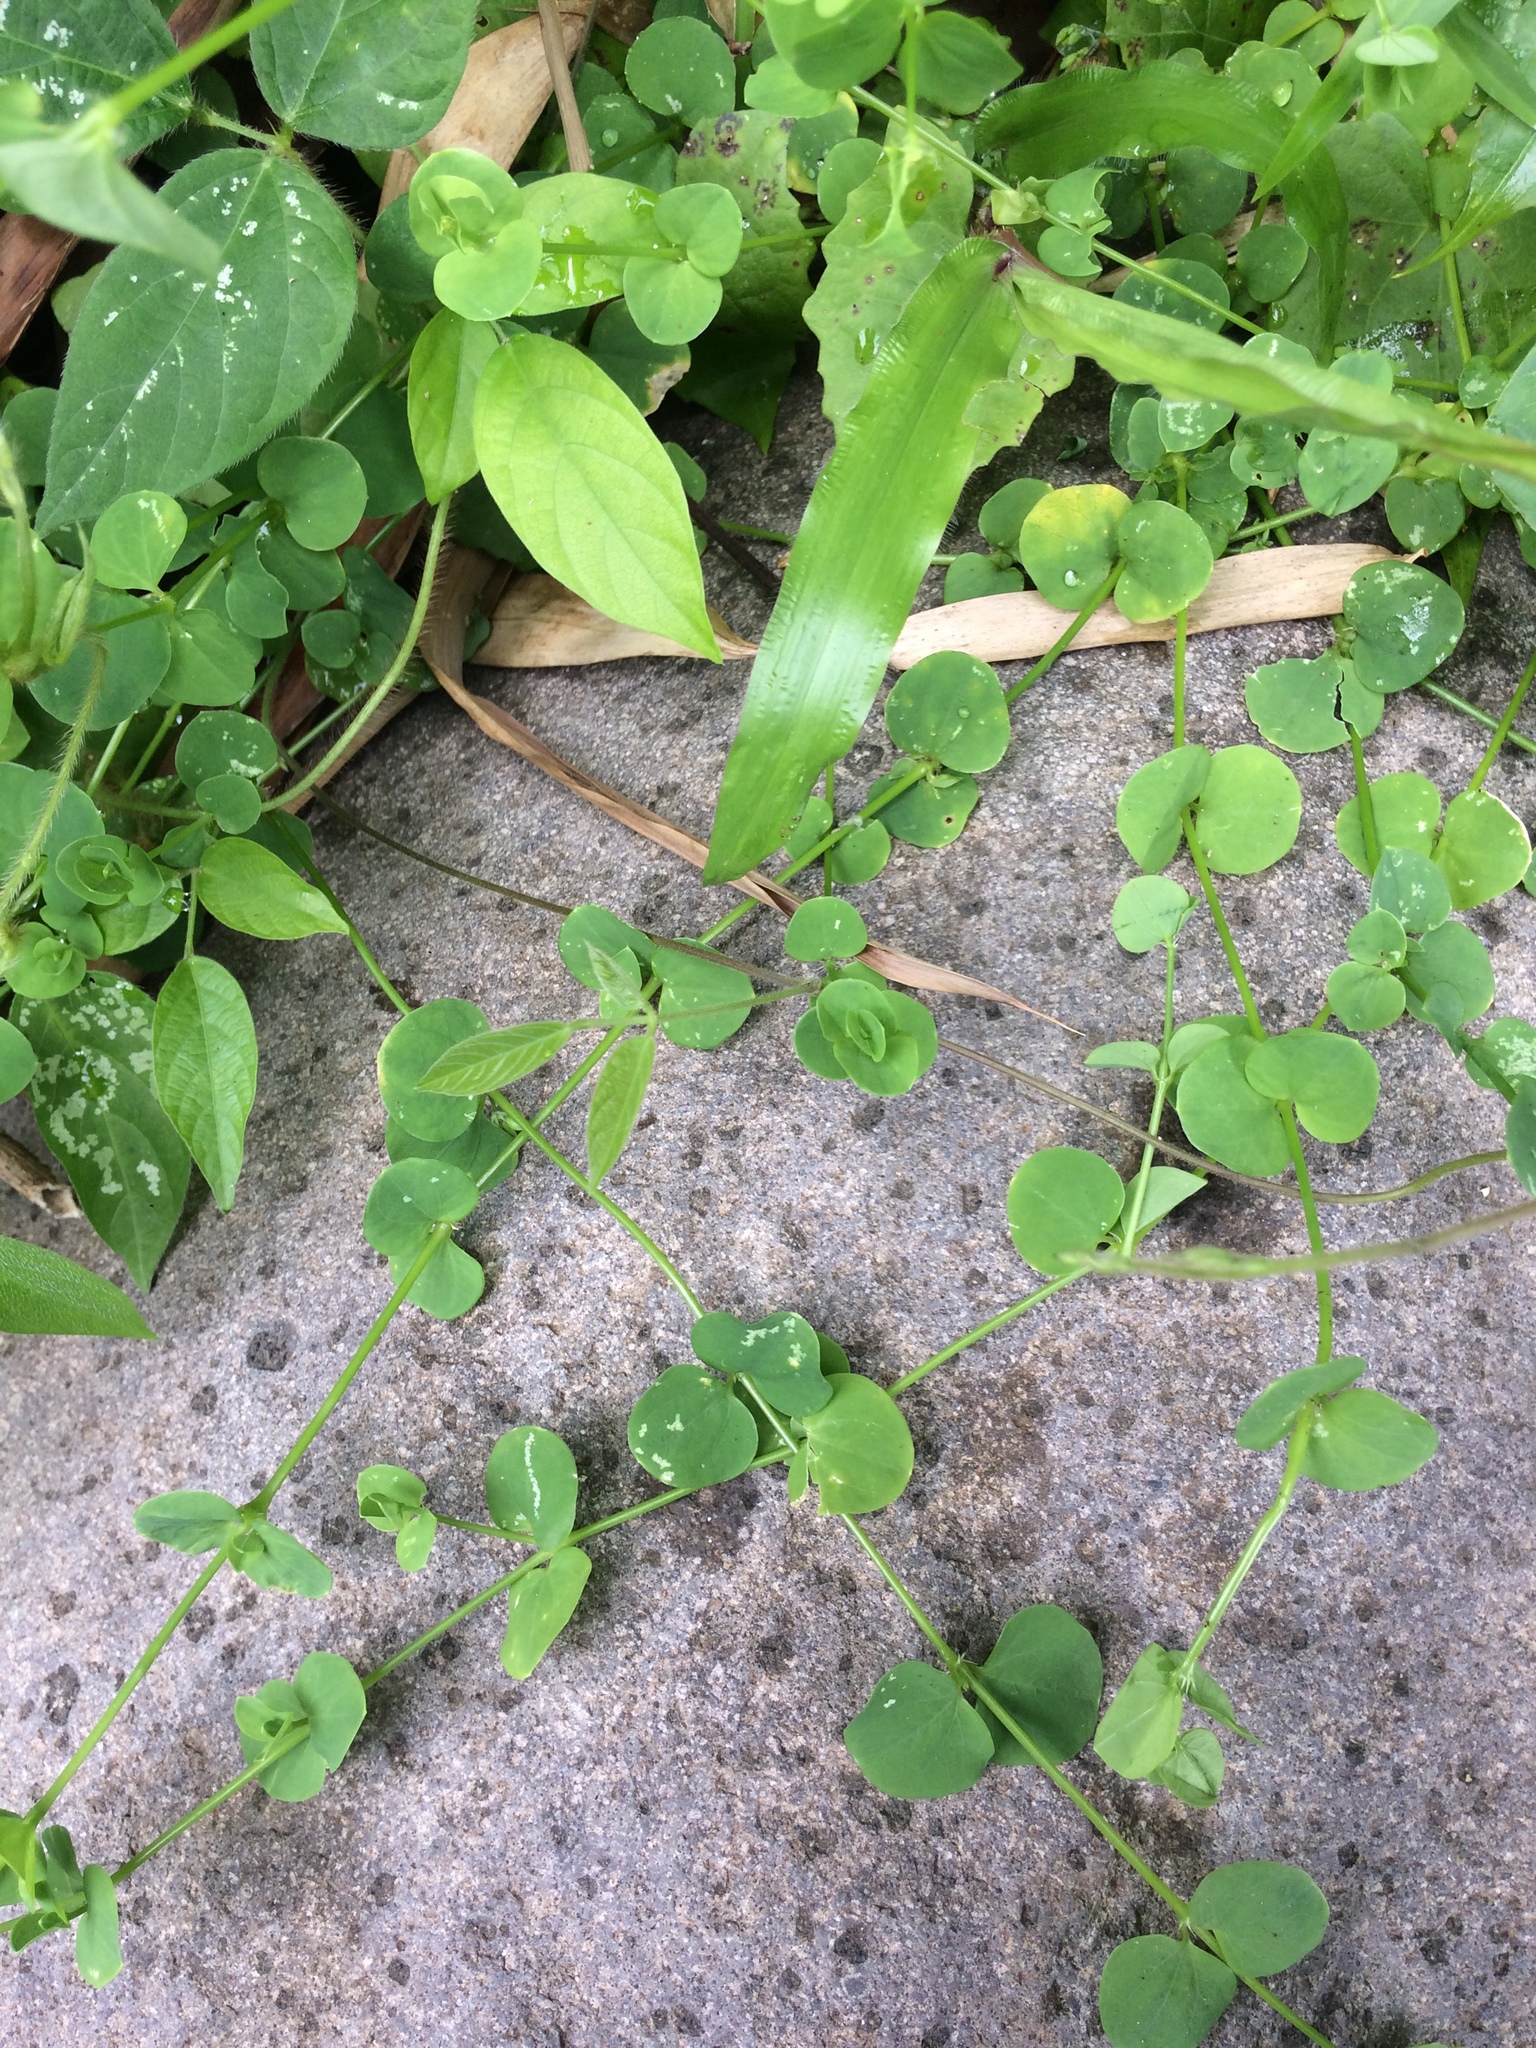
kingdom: Plantae
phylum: Tracheophyta
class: Magnoliopsida
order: Caryophyllales
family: Caryophyllaceae
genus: Drymaria
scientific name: Drymaria cordata
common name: Whitesnow
